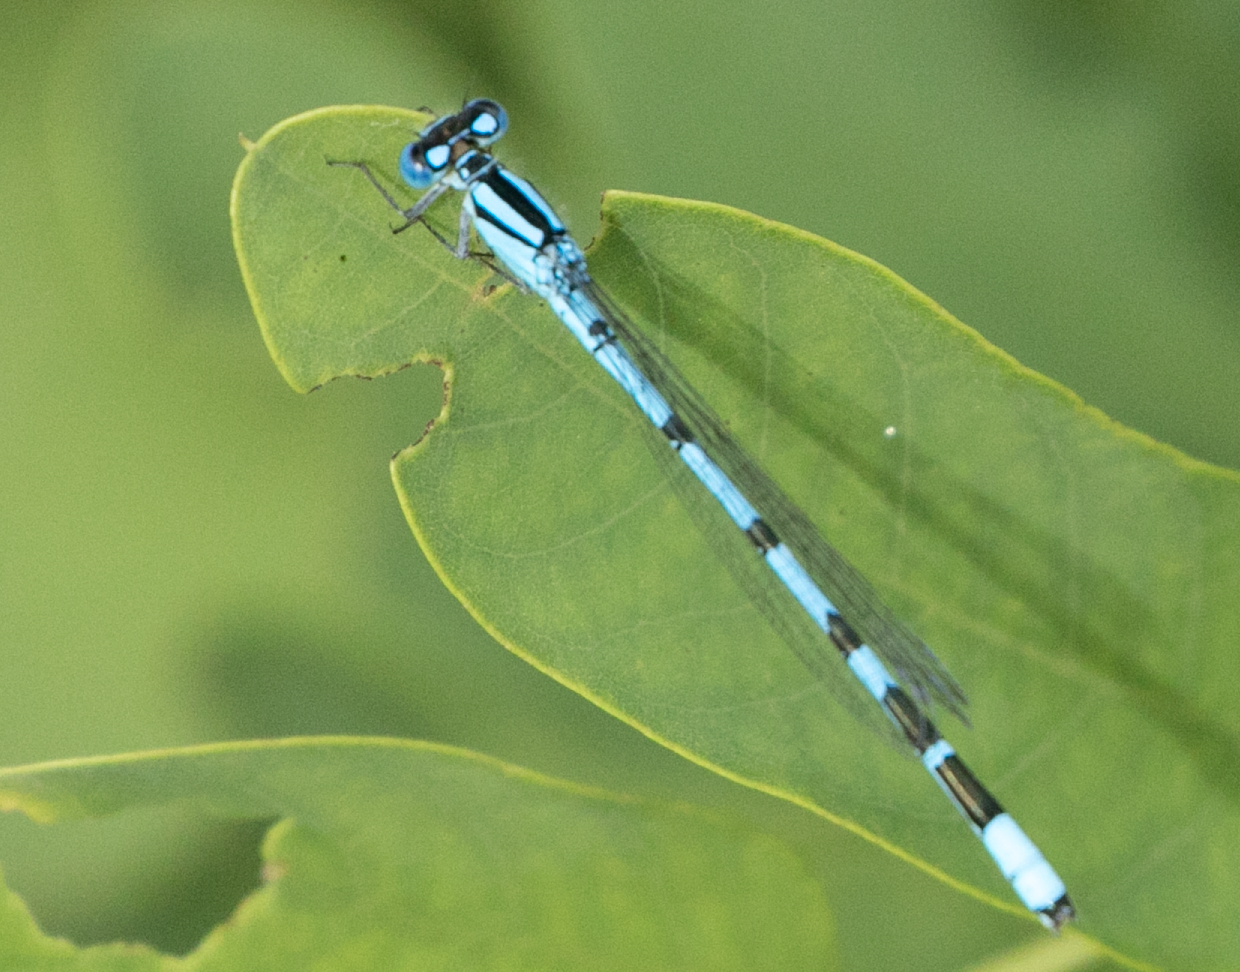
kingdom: Animalia
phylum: Arthropoda
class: Insecta
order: Odonata
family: Coenagrionidae
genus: Enallagma
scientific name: Enallagma cyathigerum
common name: Common blue damselfly
